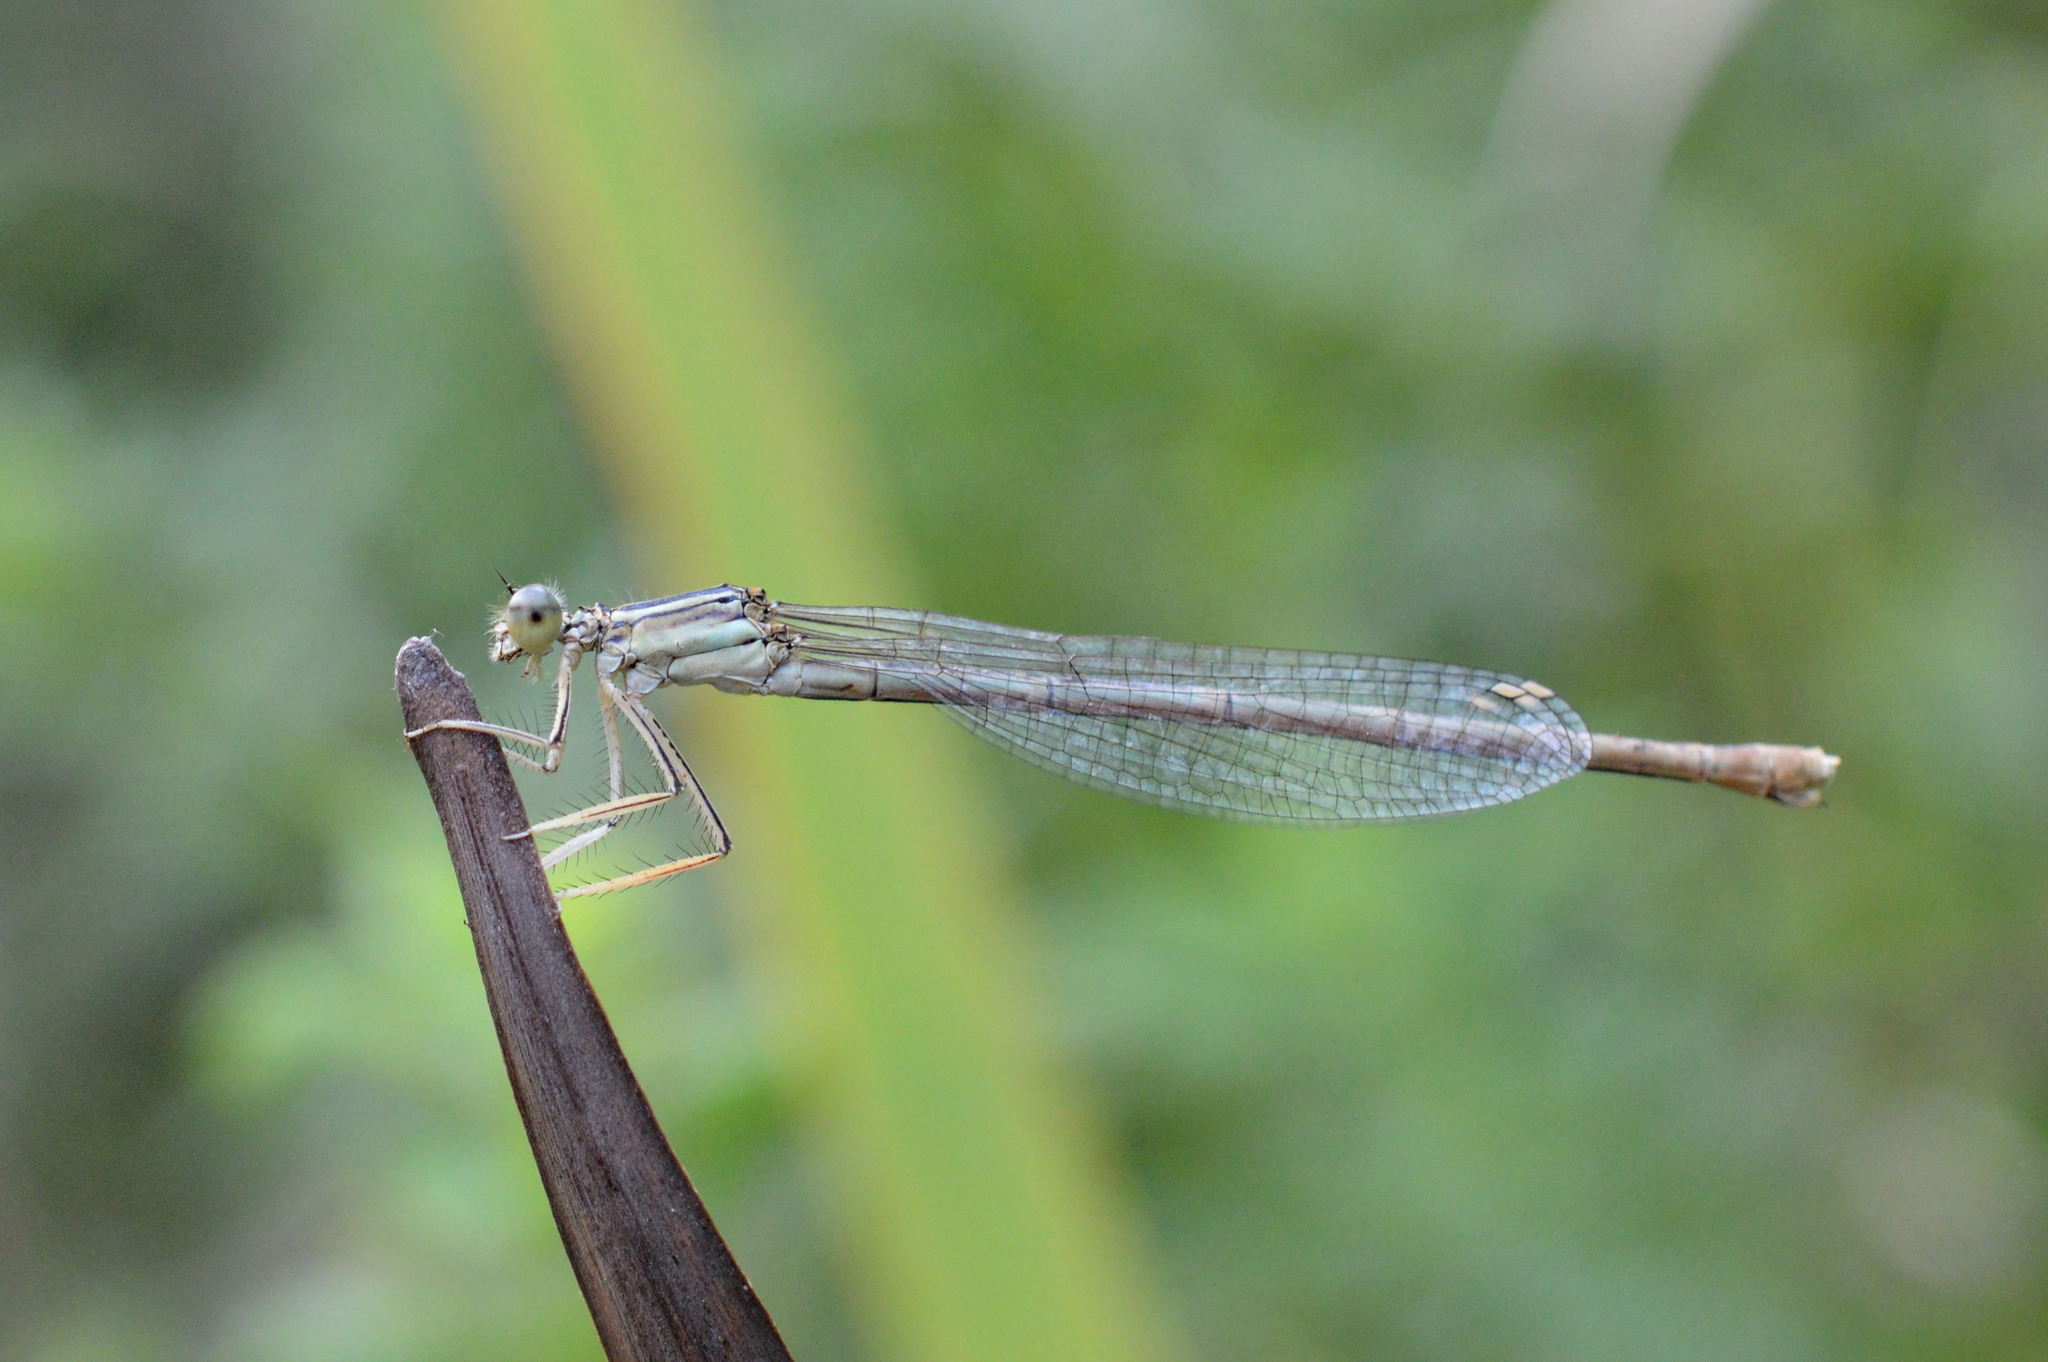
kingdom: Animalia
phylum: Arthropoda
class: Insecta
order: Odonata
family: Platycnemididae
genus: Platycnemis
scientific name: Platycnemis pennipes
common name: White-legged damselfly
